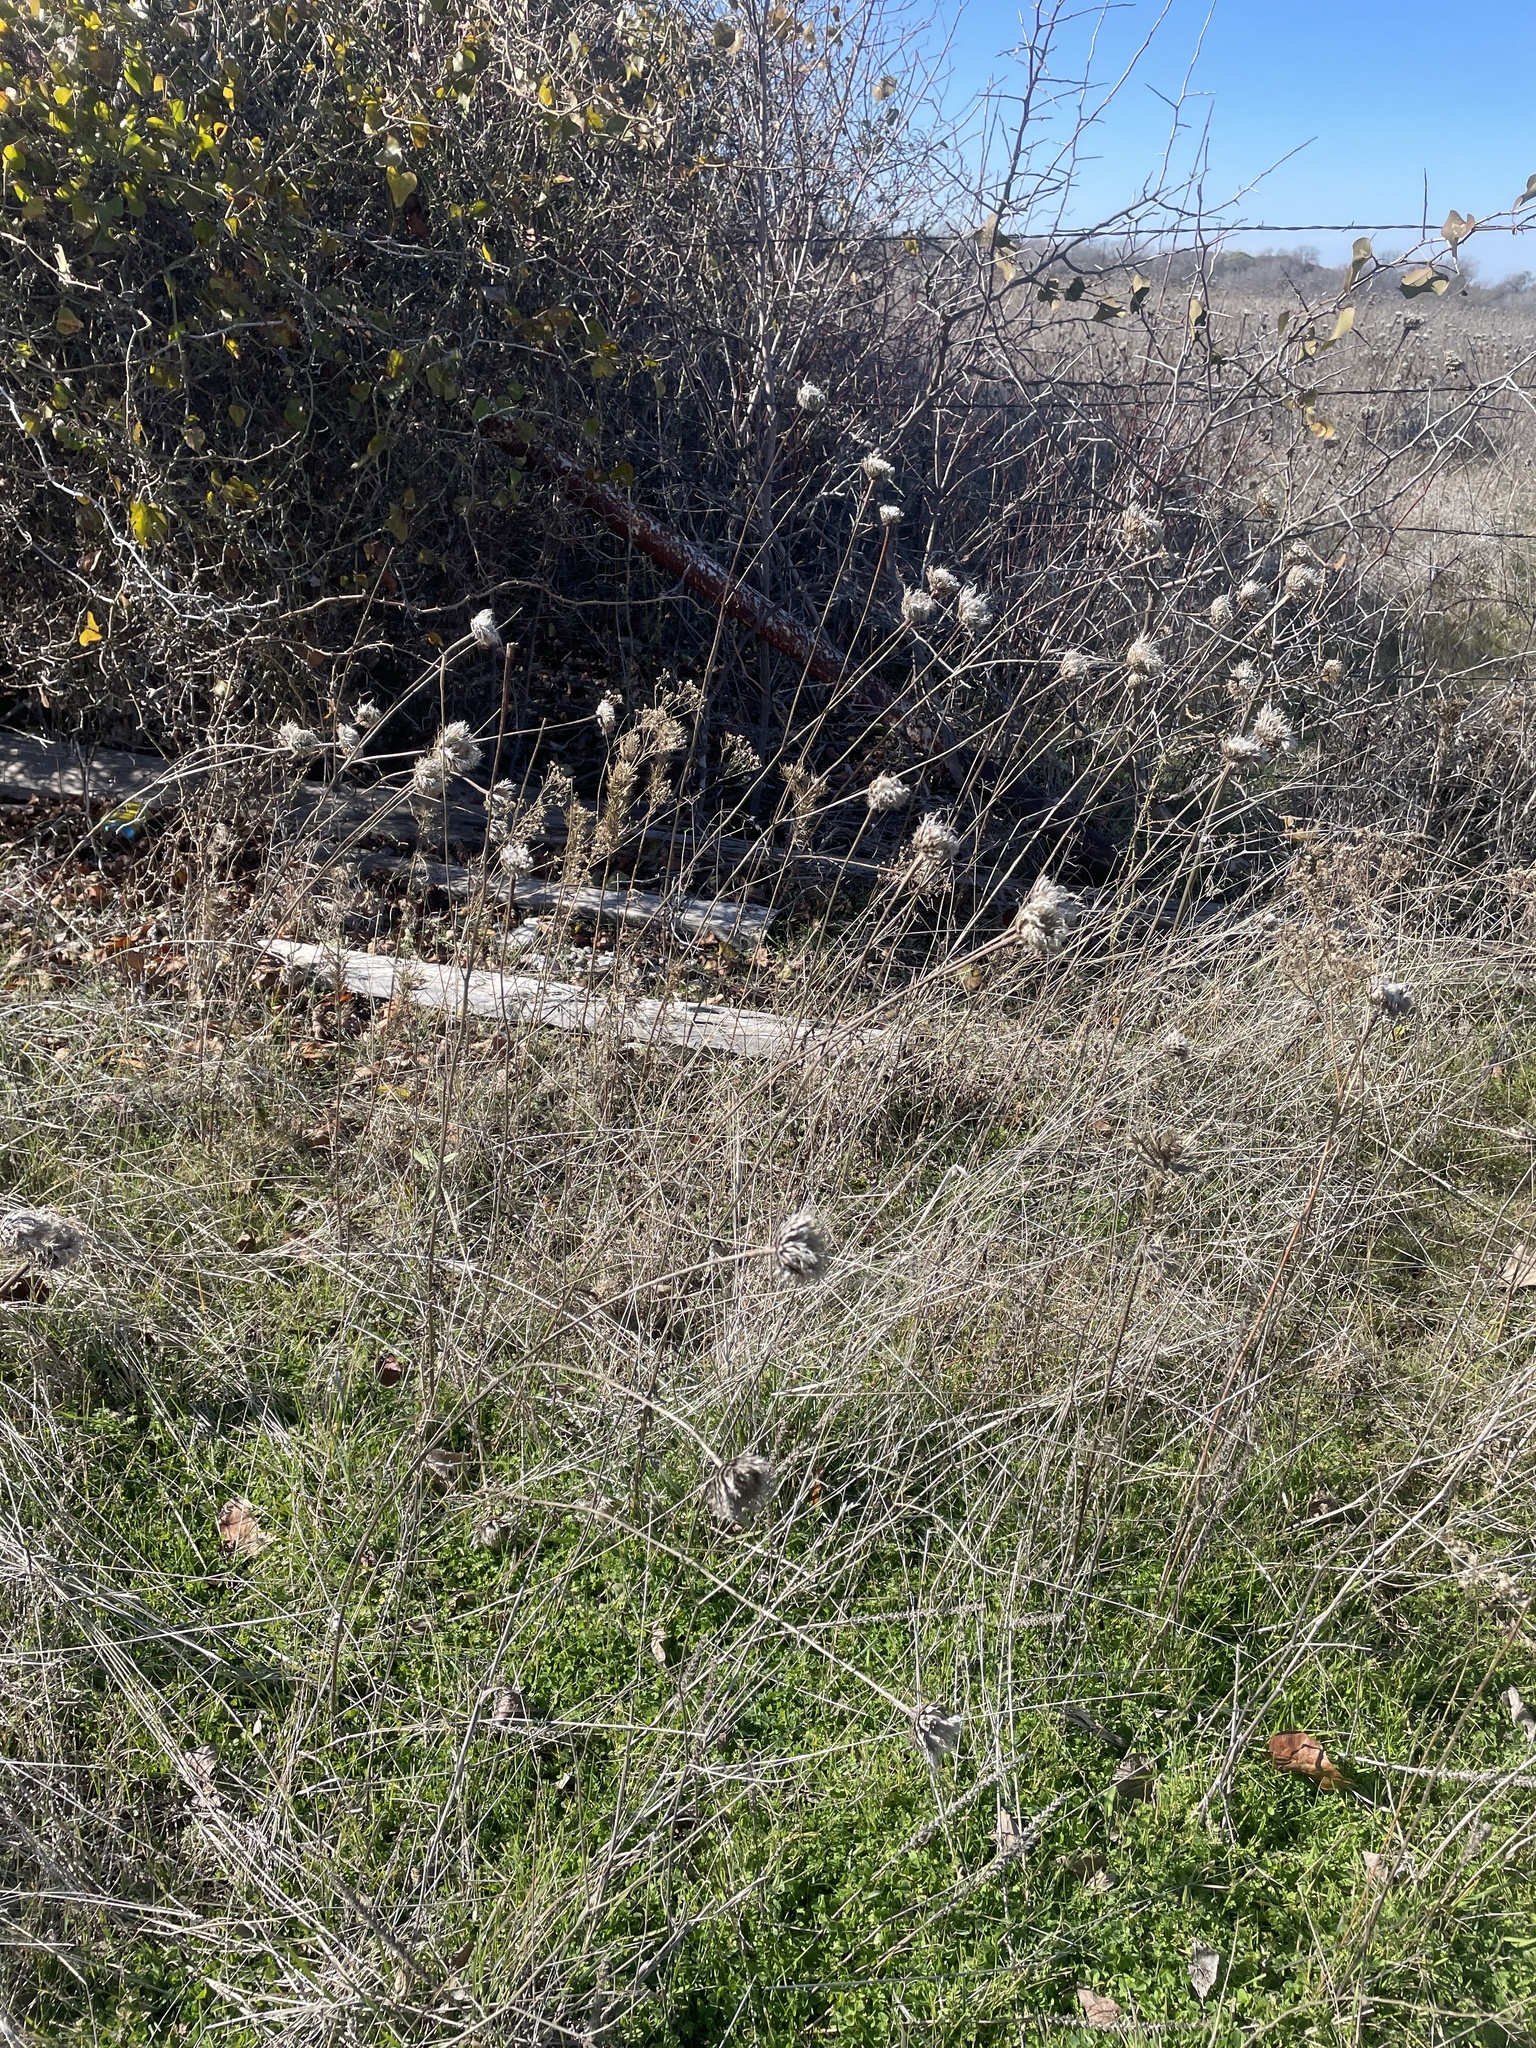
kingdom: Plantae
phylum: Tracheophyta
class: Magnoliopsida
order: Asterales
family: Asteraceae
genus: Plectocephalus
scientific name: Plectocephalus americanus
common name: American basket-flower
